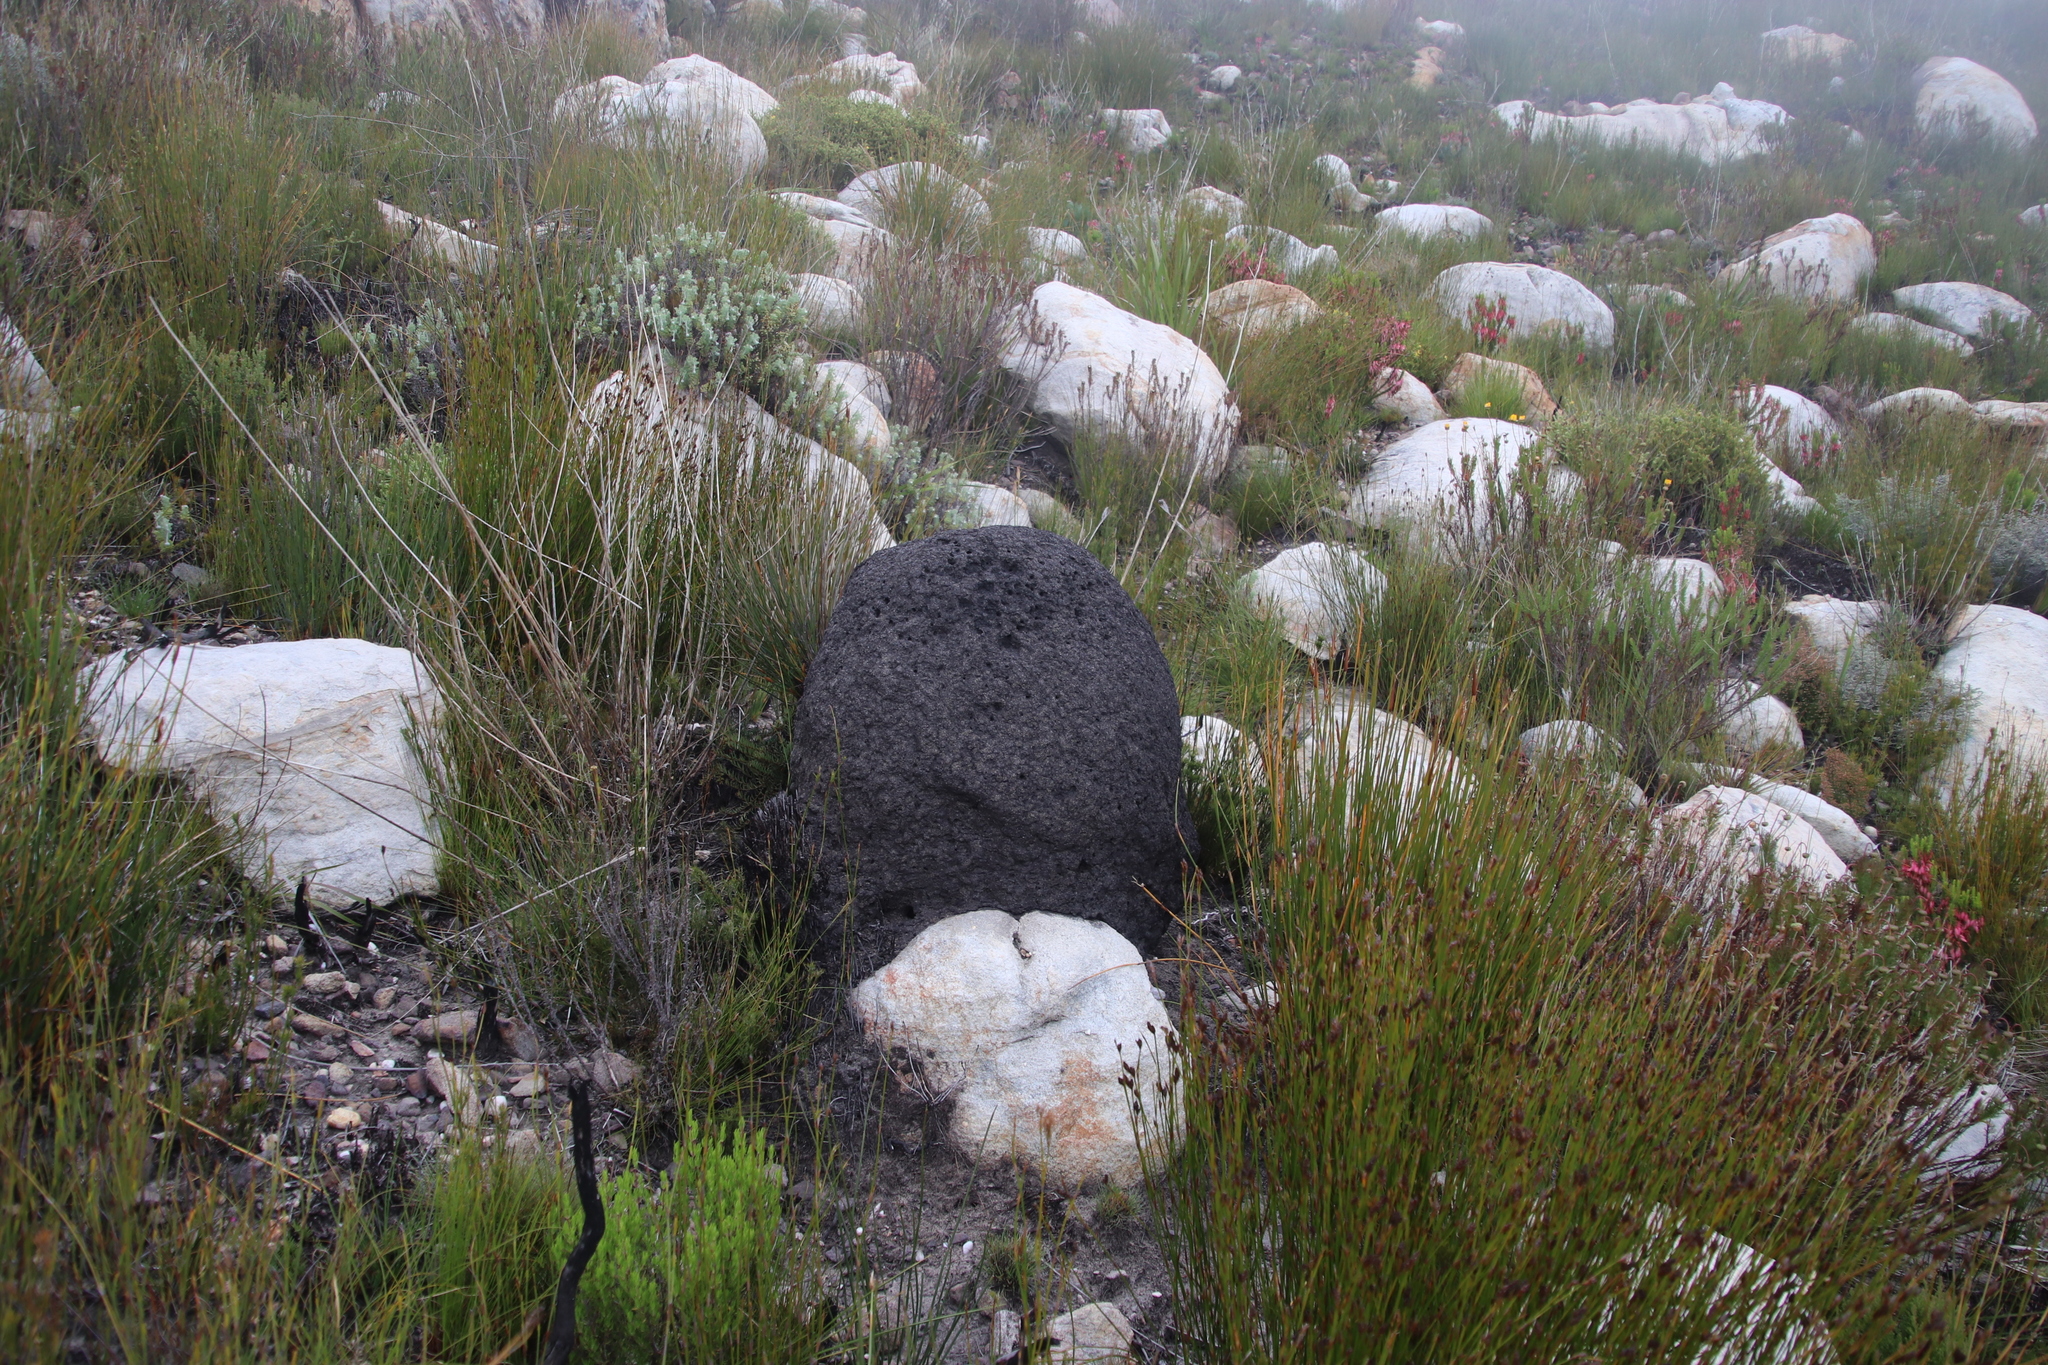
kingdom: Animalia
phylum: Arthropoda
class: Insecta
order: Blattodea
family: Termitidae
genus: Amitermes
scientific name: Amitermes hastatus
